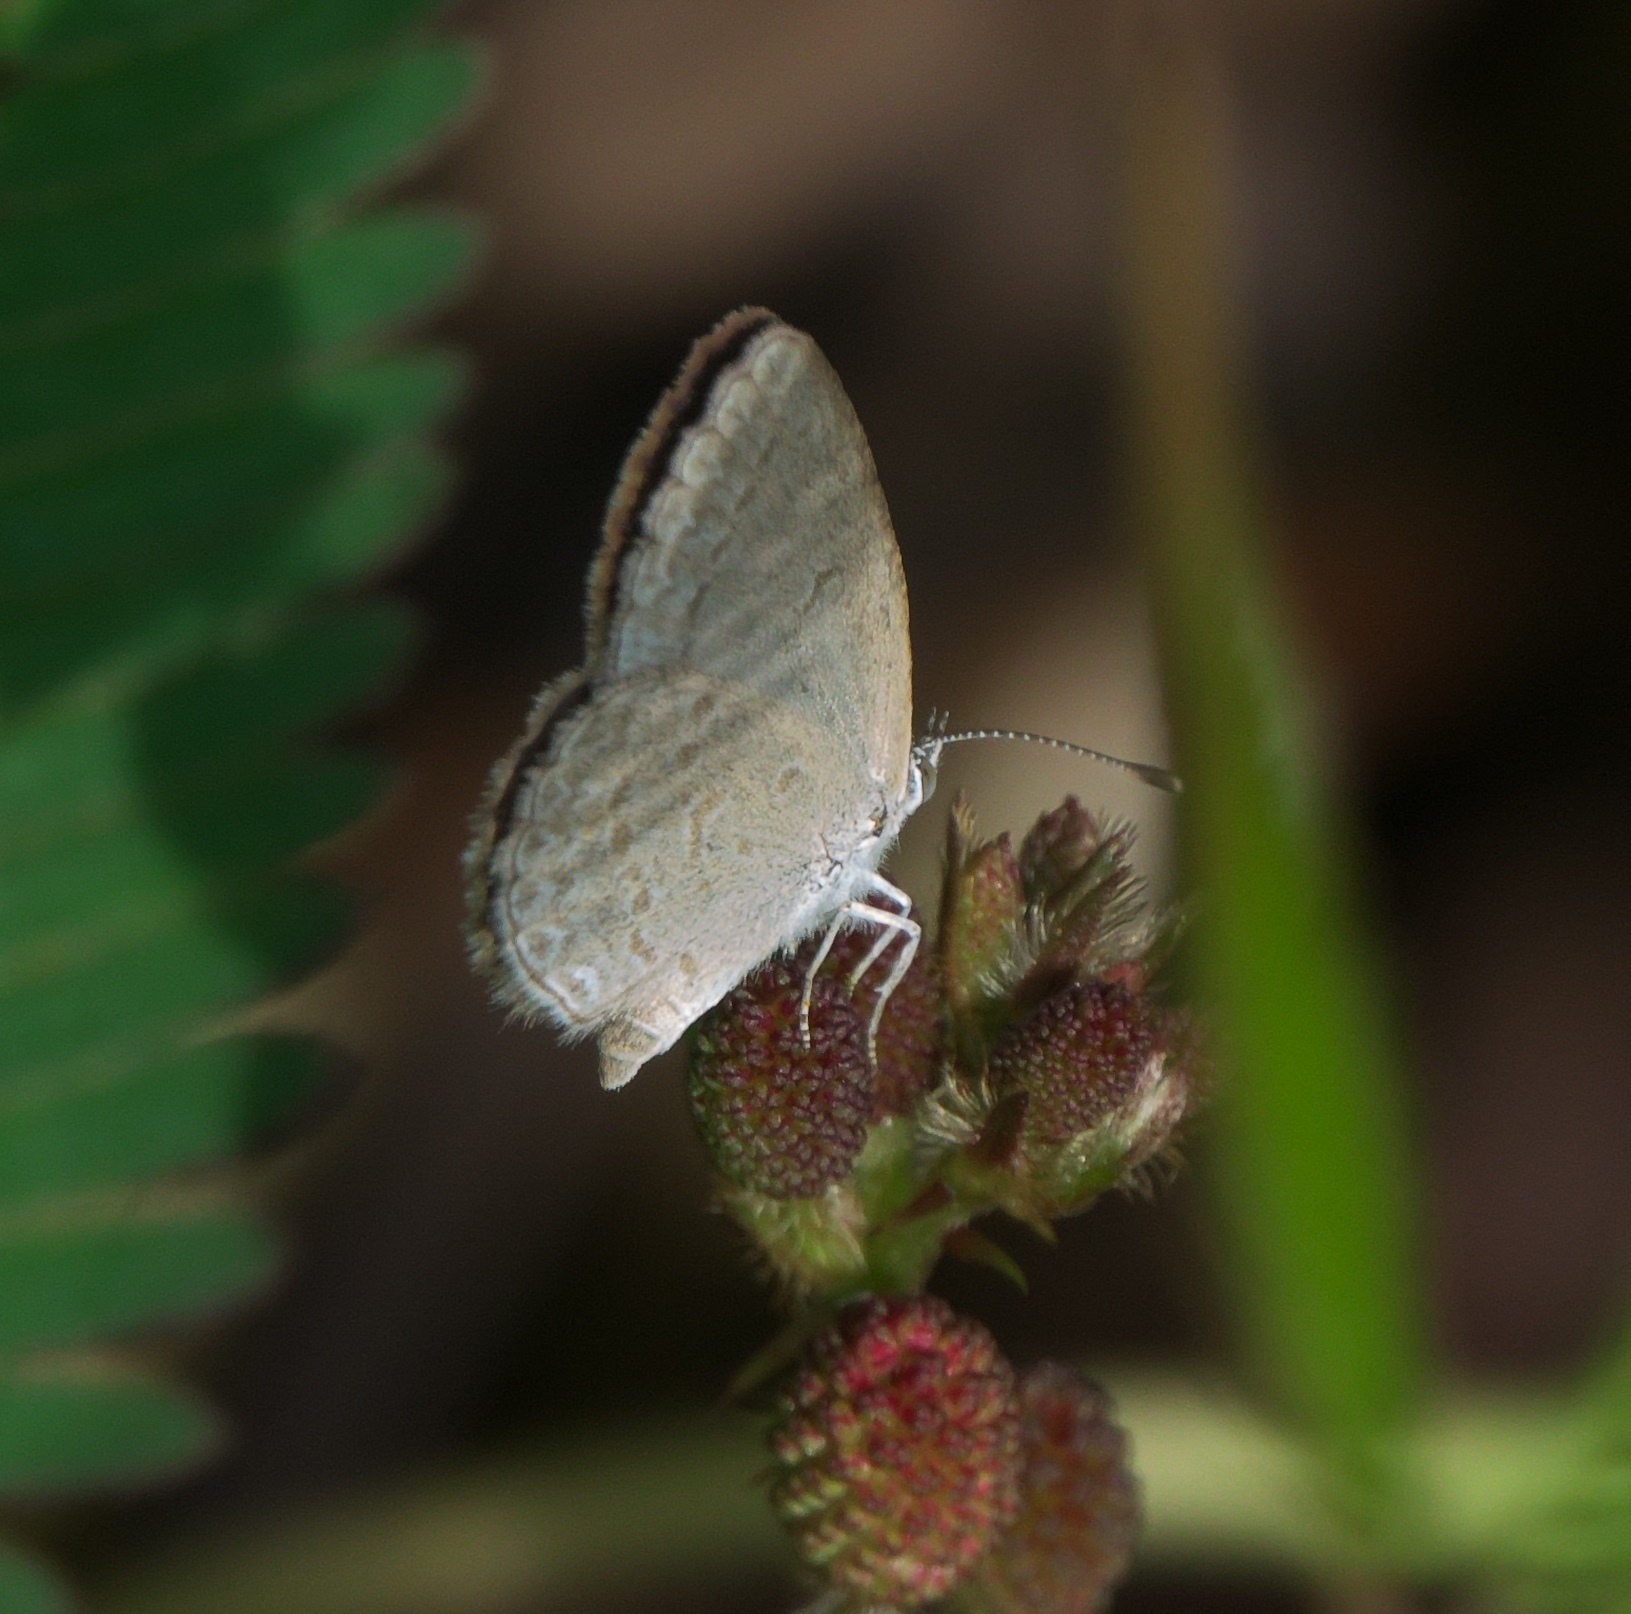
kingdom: Animalia
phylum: Arthropoda
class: Insecta
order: Lepidoptera
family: Lycaenidae
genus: Zizina
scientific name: Zizina otis
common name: Lesser grass blue
